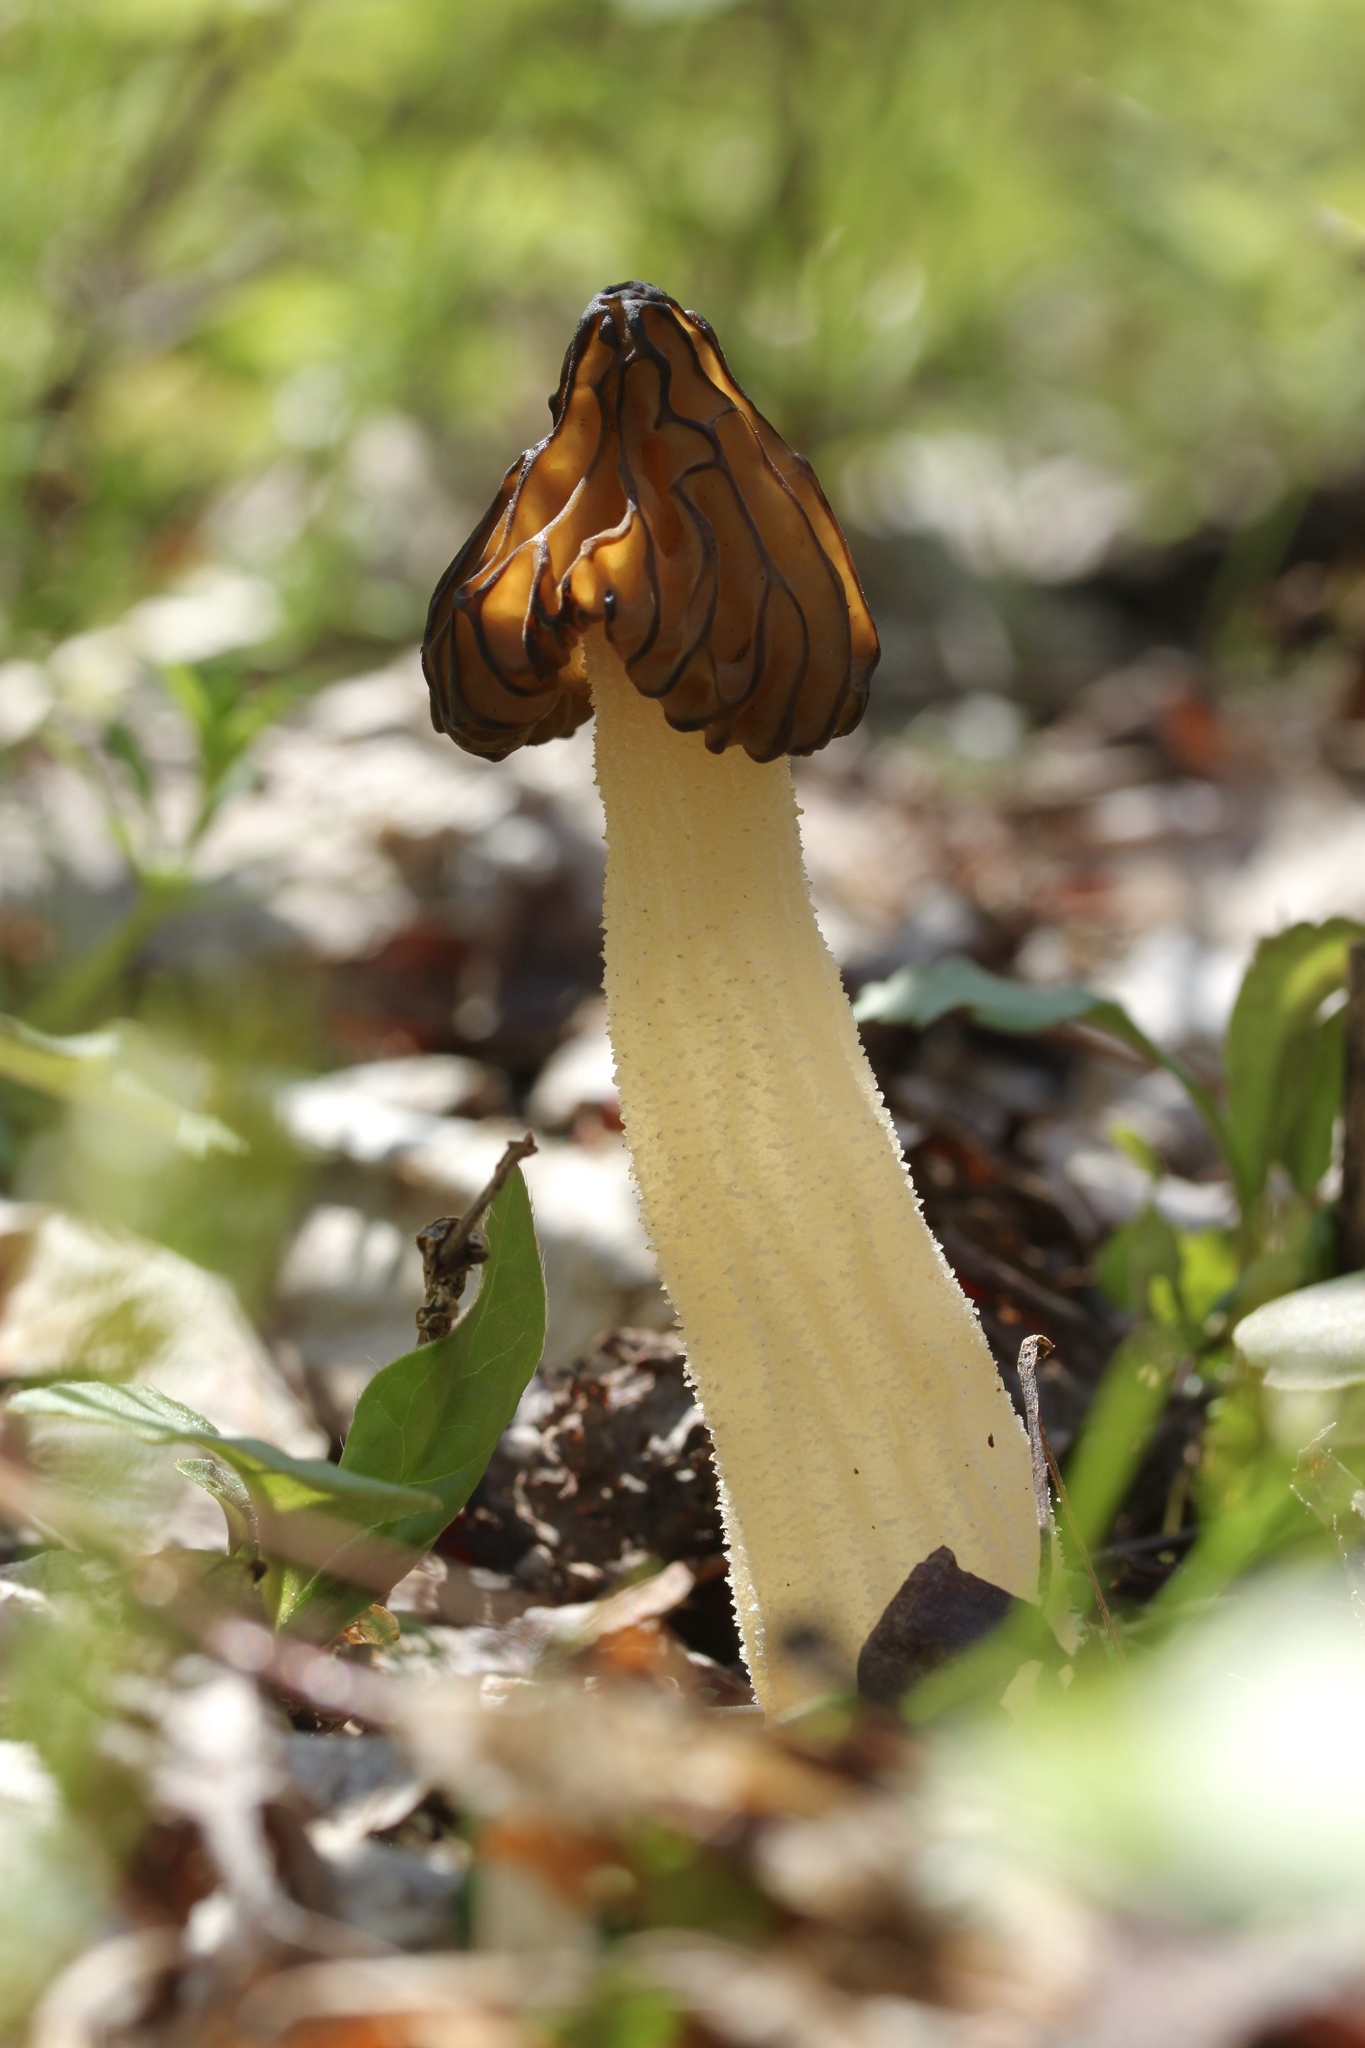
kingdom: Fungi
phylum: Ascomycota
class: Pezizomycetes
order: Pezizales
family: Morchellaceae
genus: Morchella
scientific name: Morchella punctipes
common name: Half-free morel
